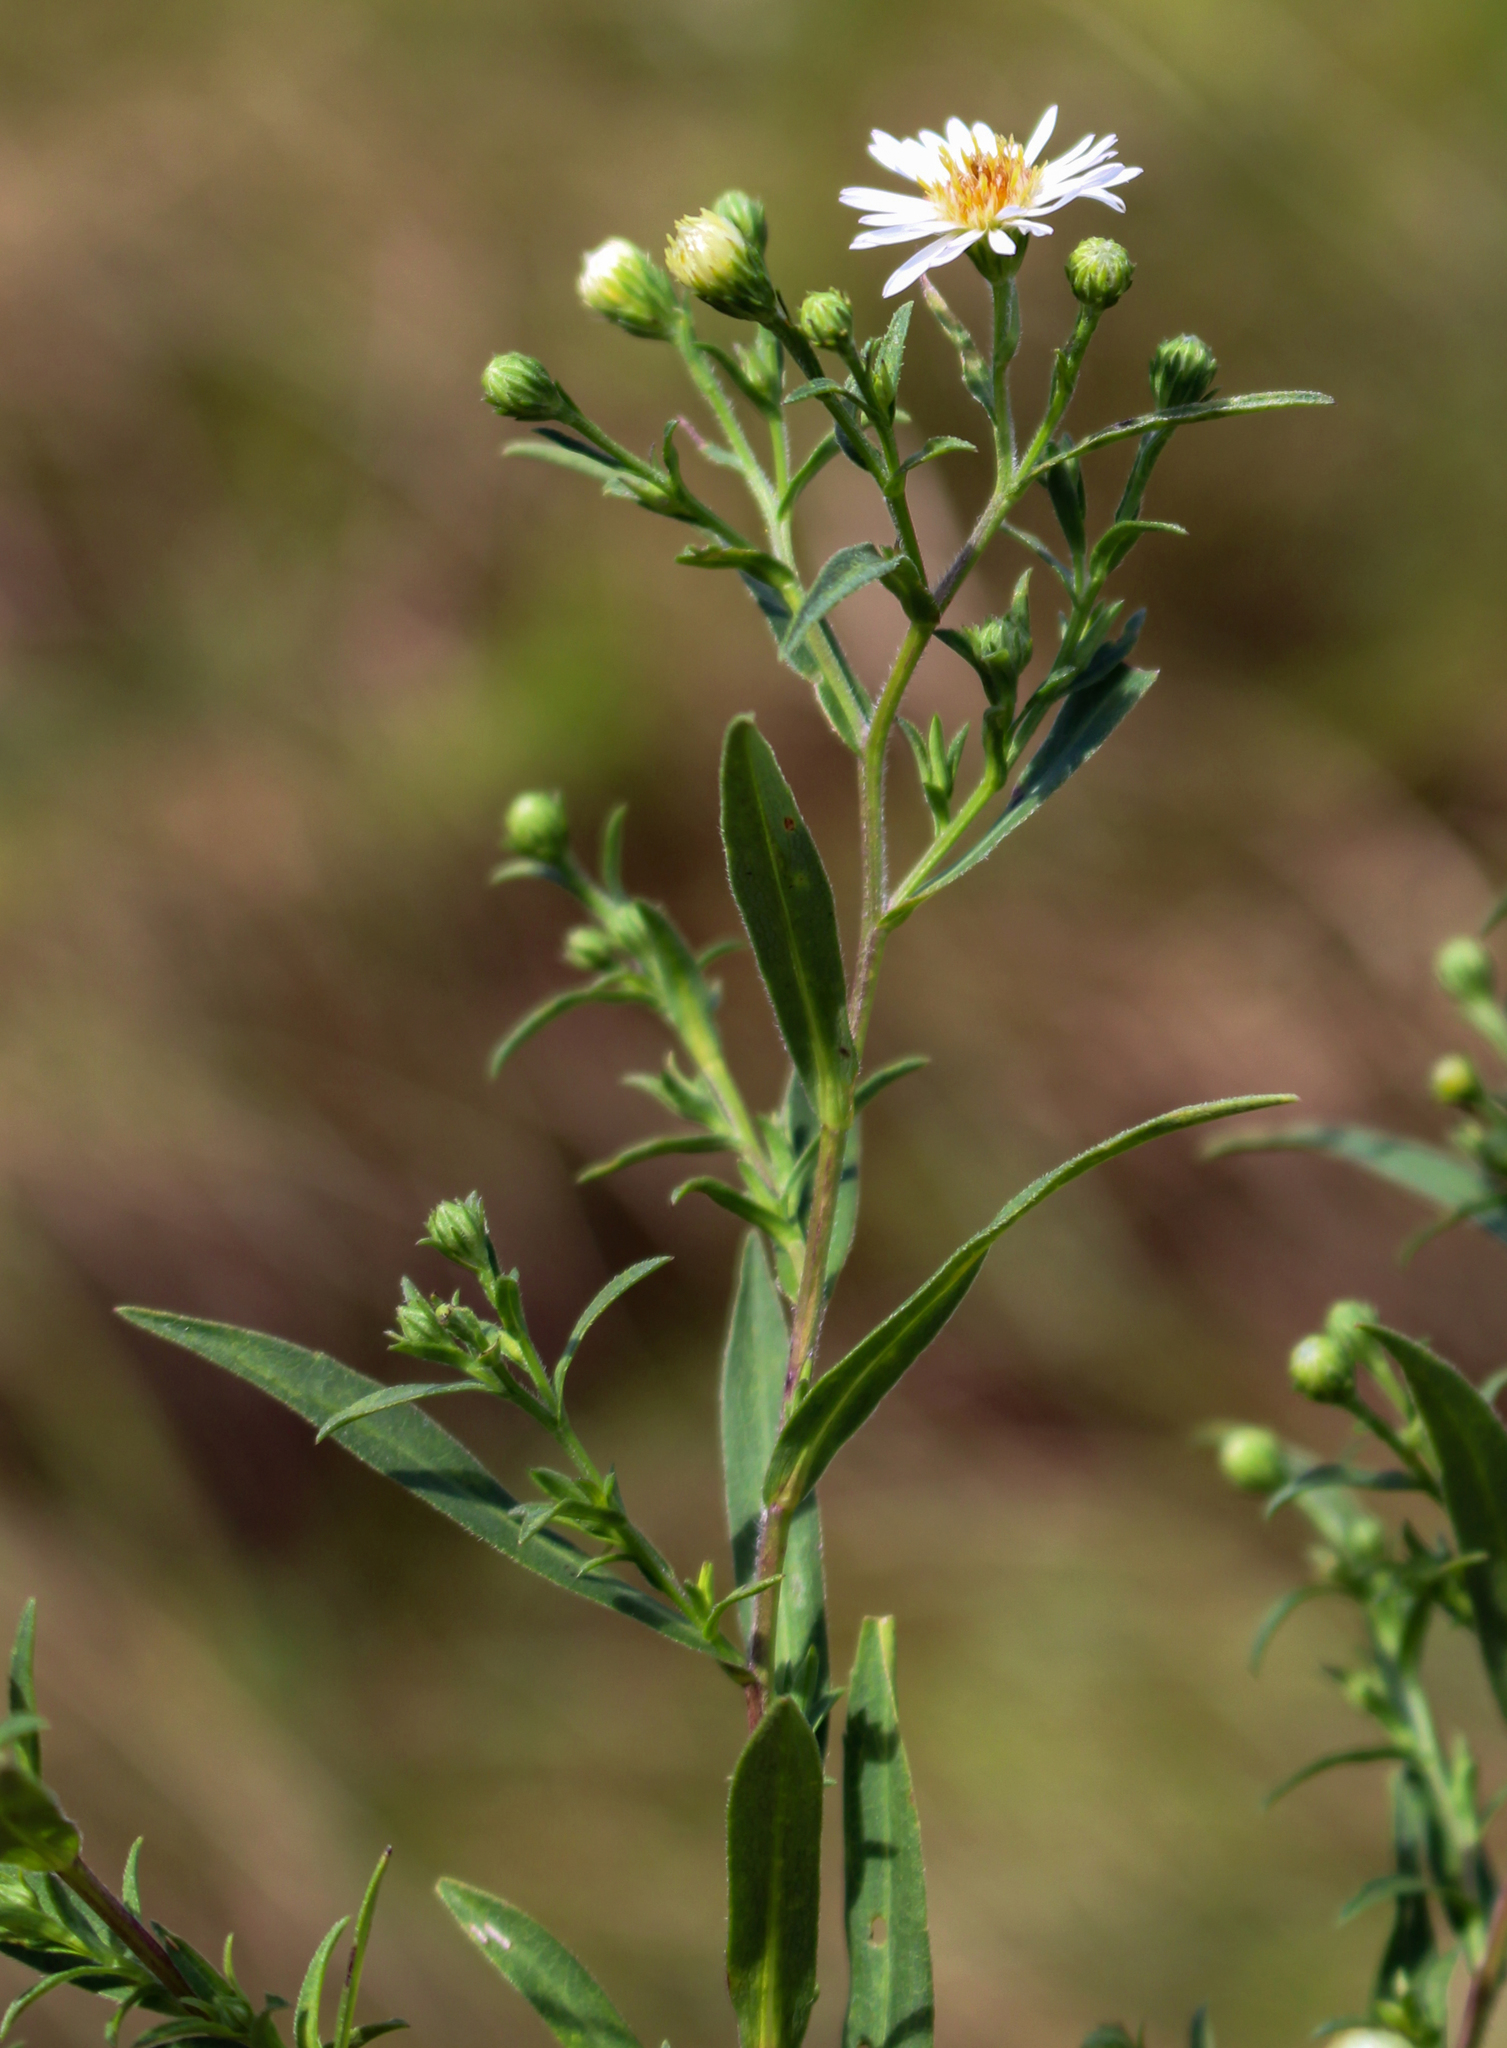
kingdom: Plantae
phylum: Tracheophyta
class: Magnoliopsida
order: Asterales
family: Asteraceae
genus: Symphyotrichum
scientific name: Symphyotrichum boreale
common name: Northern bog aster
